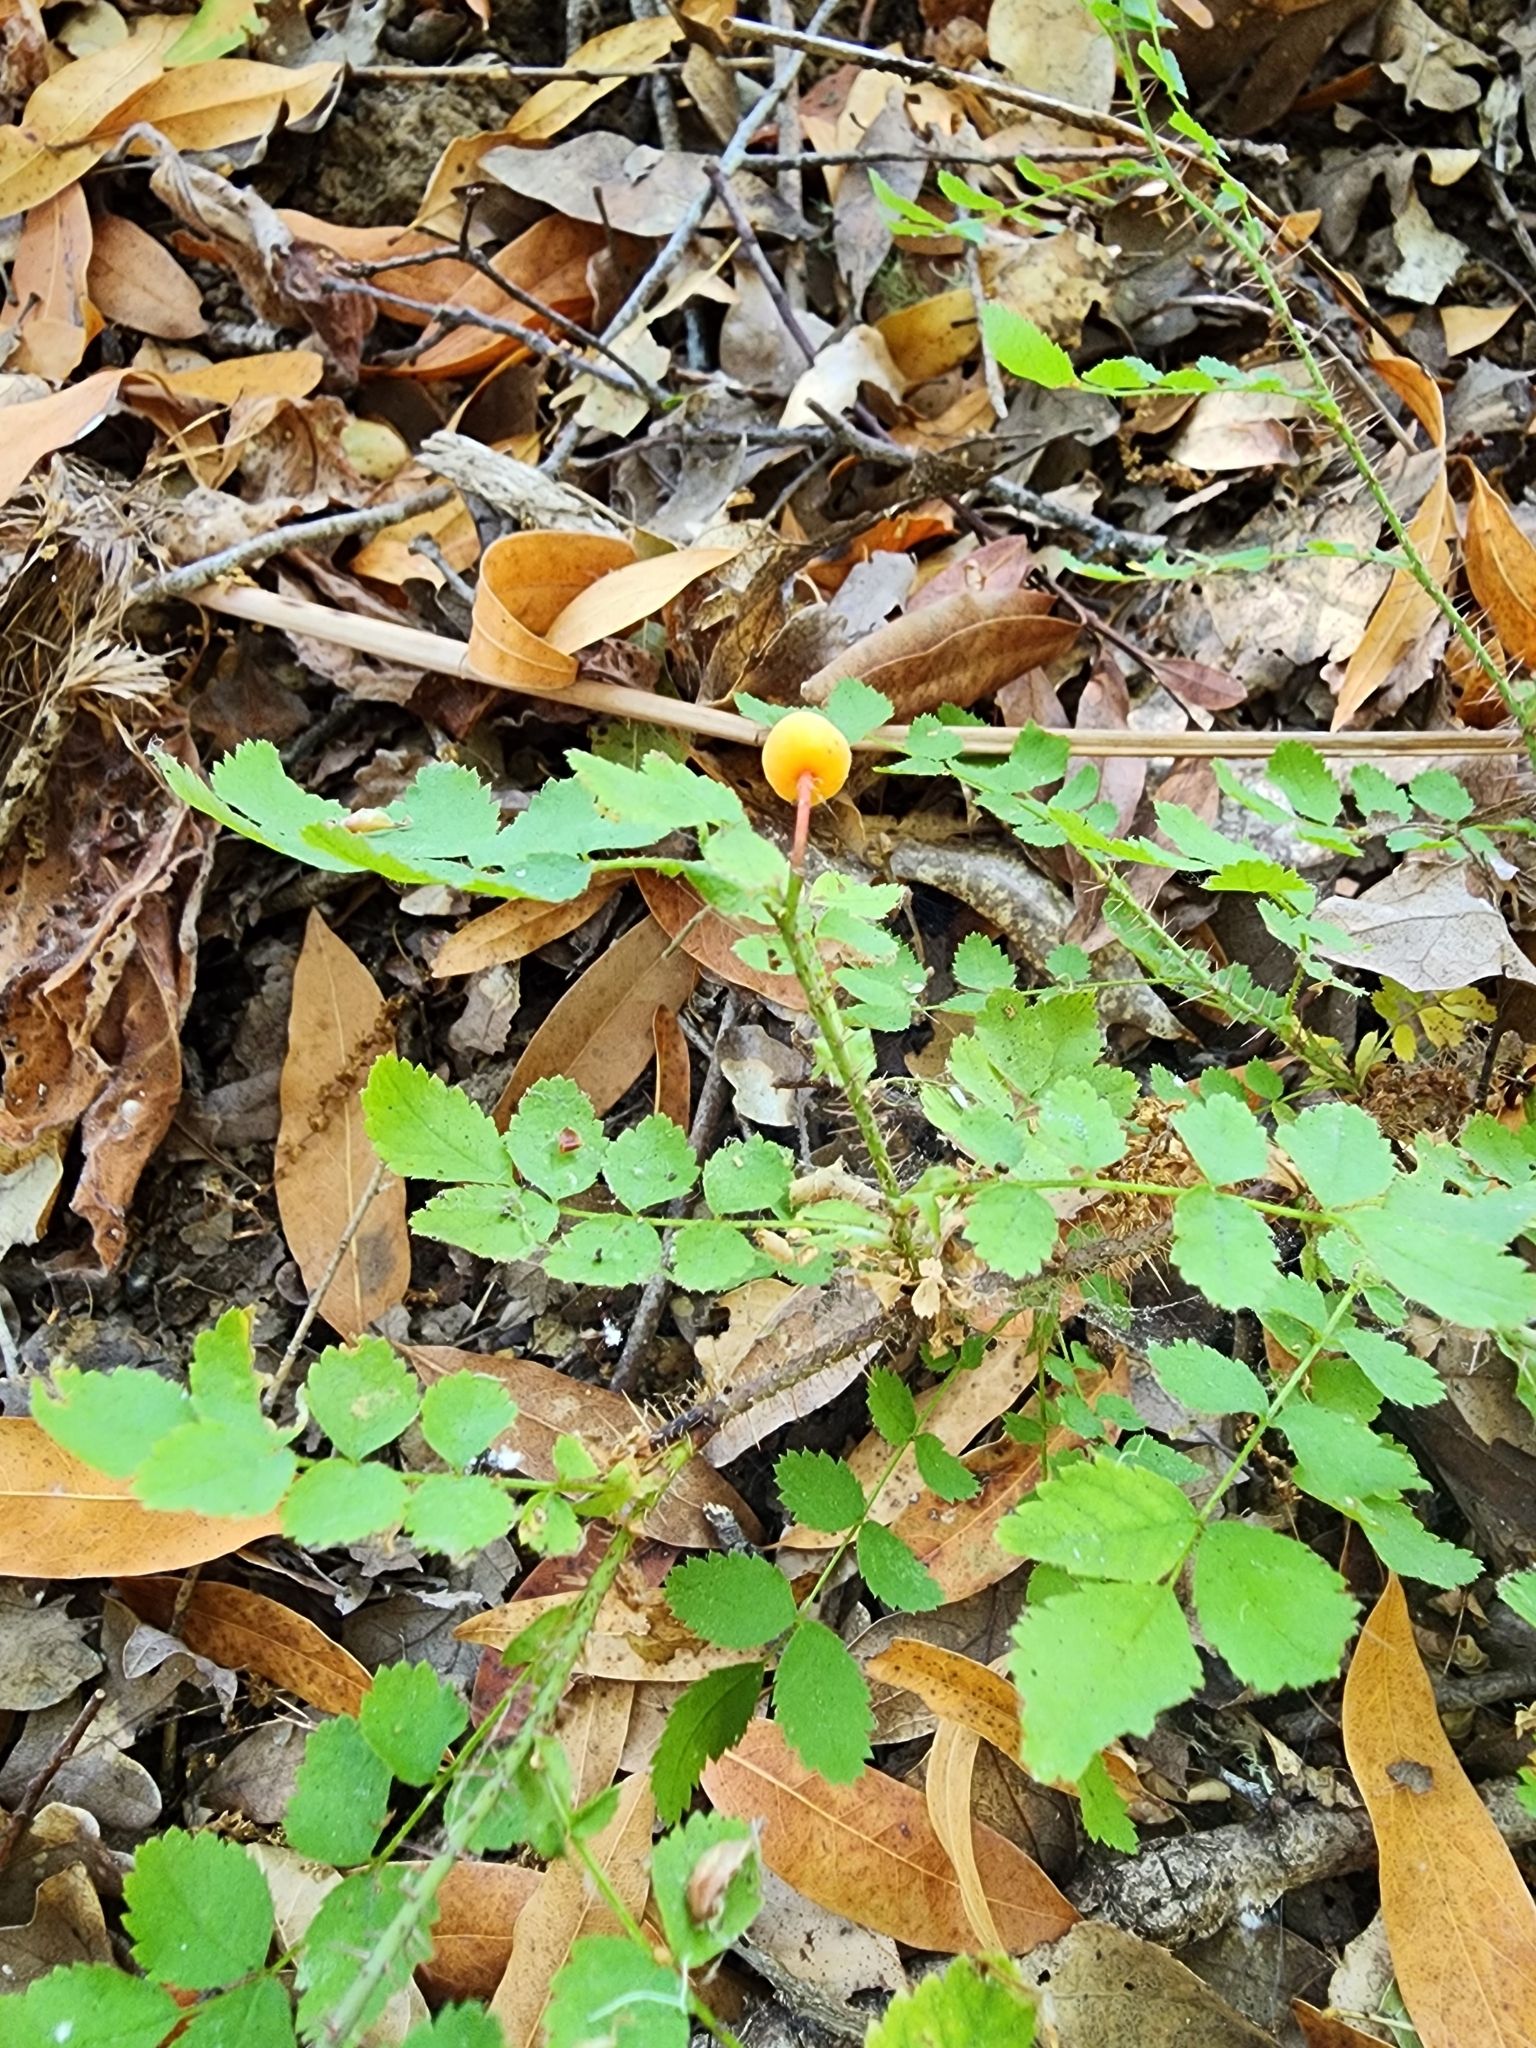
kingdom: Plantae
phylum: Tracheophyta
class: Magnoliopsida
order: Rosales
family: Rosaceae
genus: Rosa
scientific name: Rosa gymnocarpa
